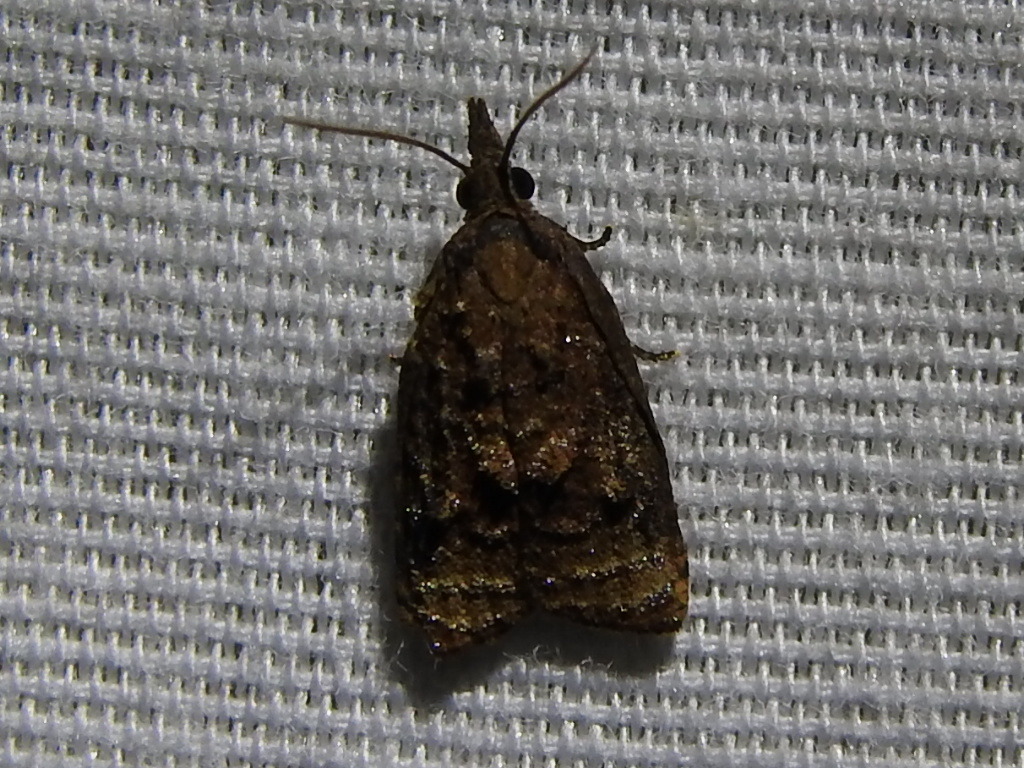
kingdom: Animalia
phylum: Arthropoda
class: Insecta
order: Lepidoptera
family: Tortricidae
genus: Platynota
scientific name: Platynota flavedana
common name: Black-shaded platynota moth
